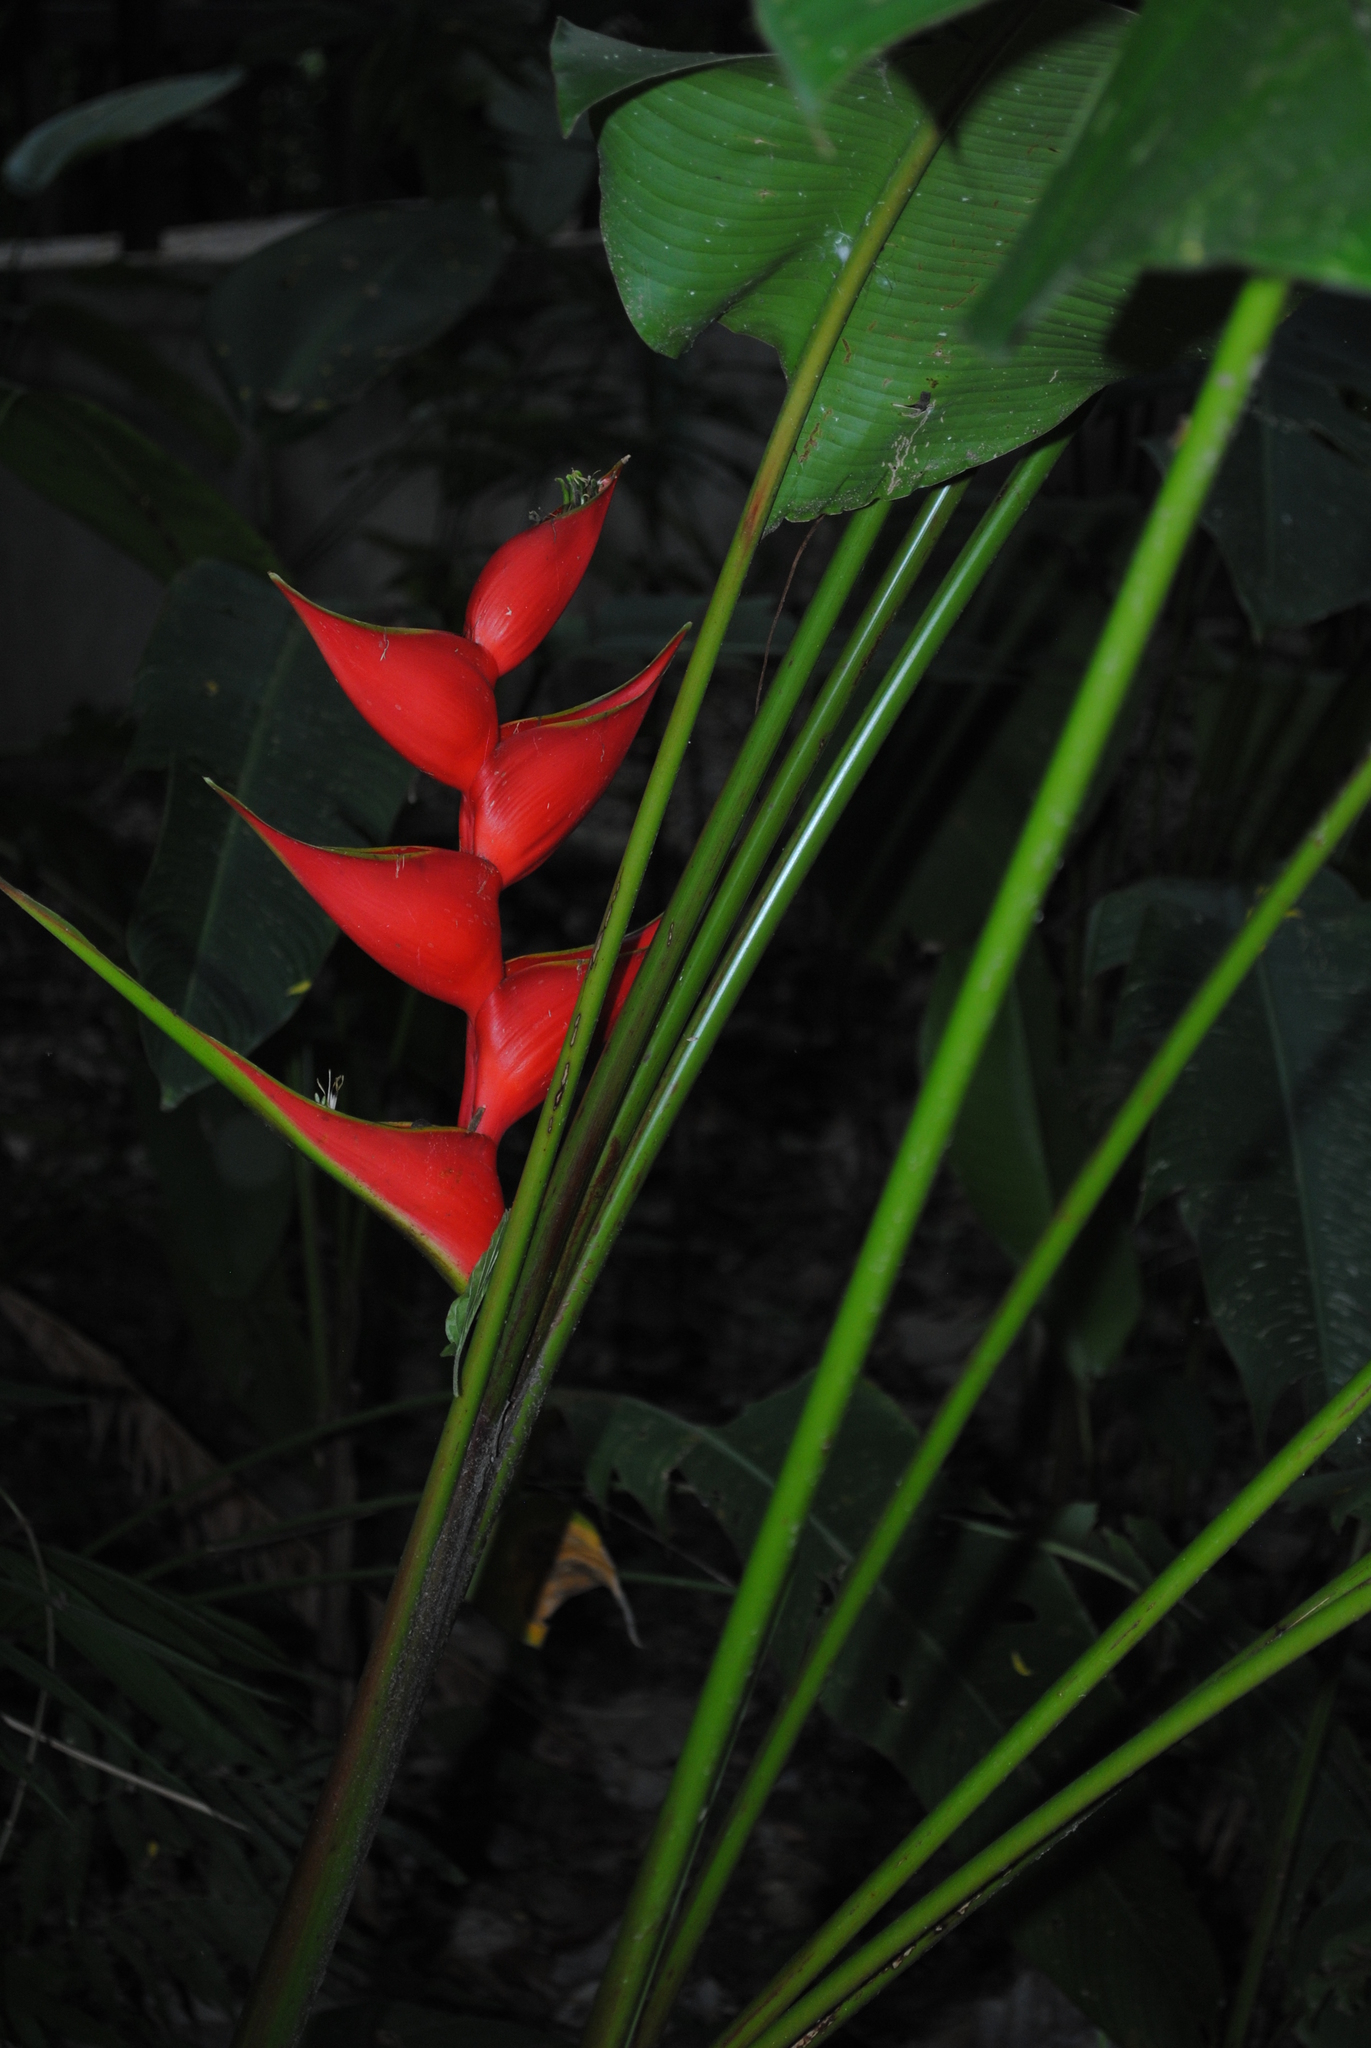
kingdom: Plantae
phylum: Tracheophyta
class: Liliopsida
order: Zingiberales
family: Heliconiaceae
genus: Heliconia
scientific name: Heliconia stricta
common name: Small lobster claw
